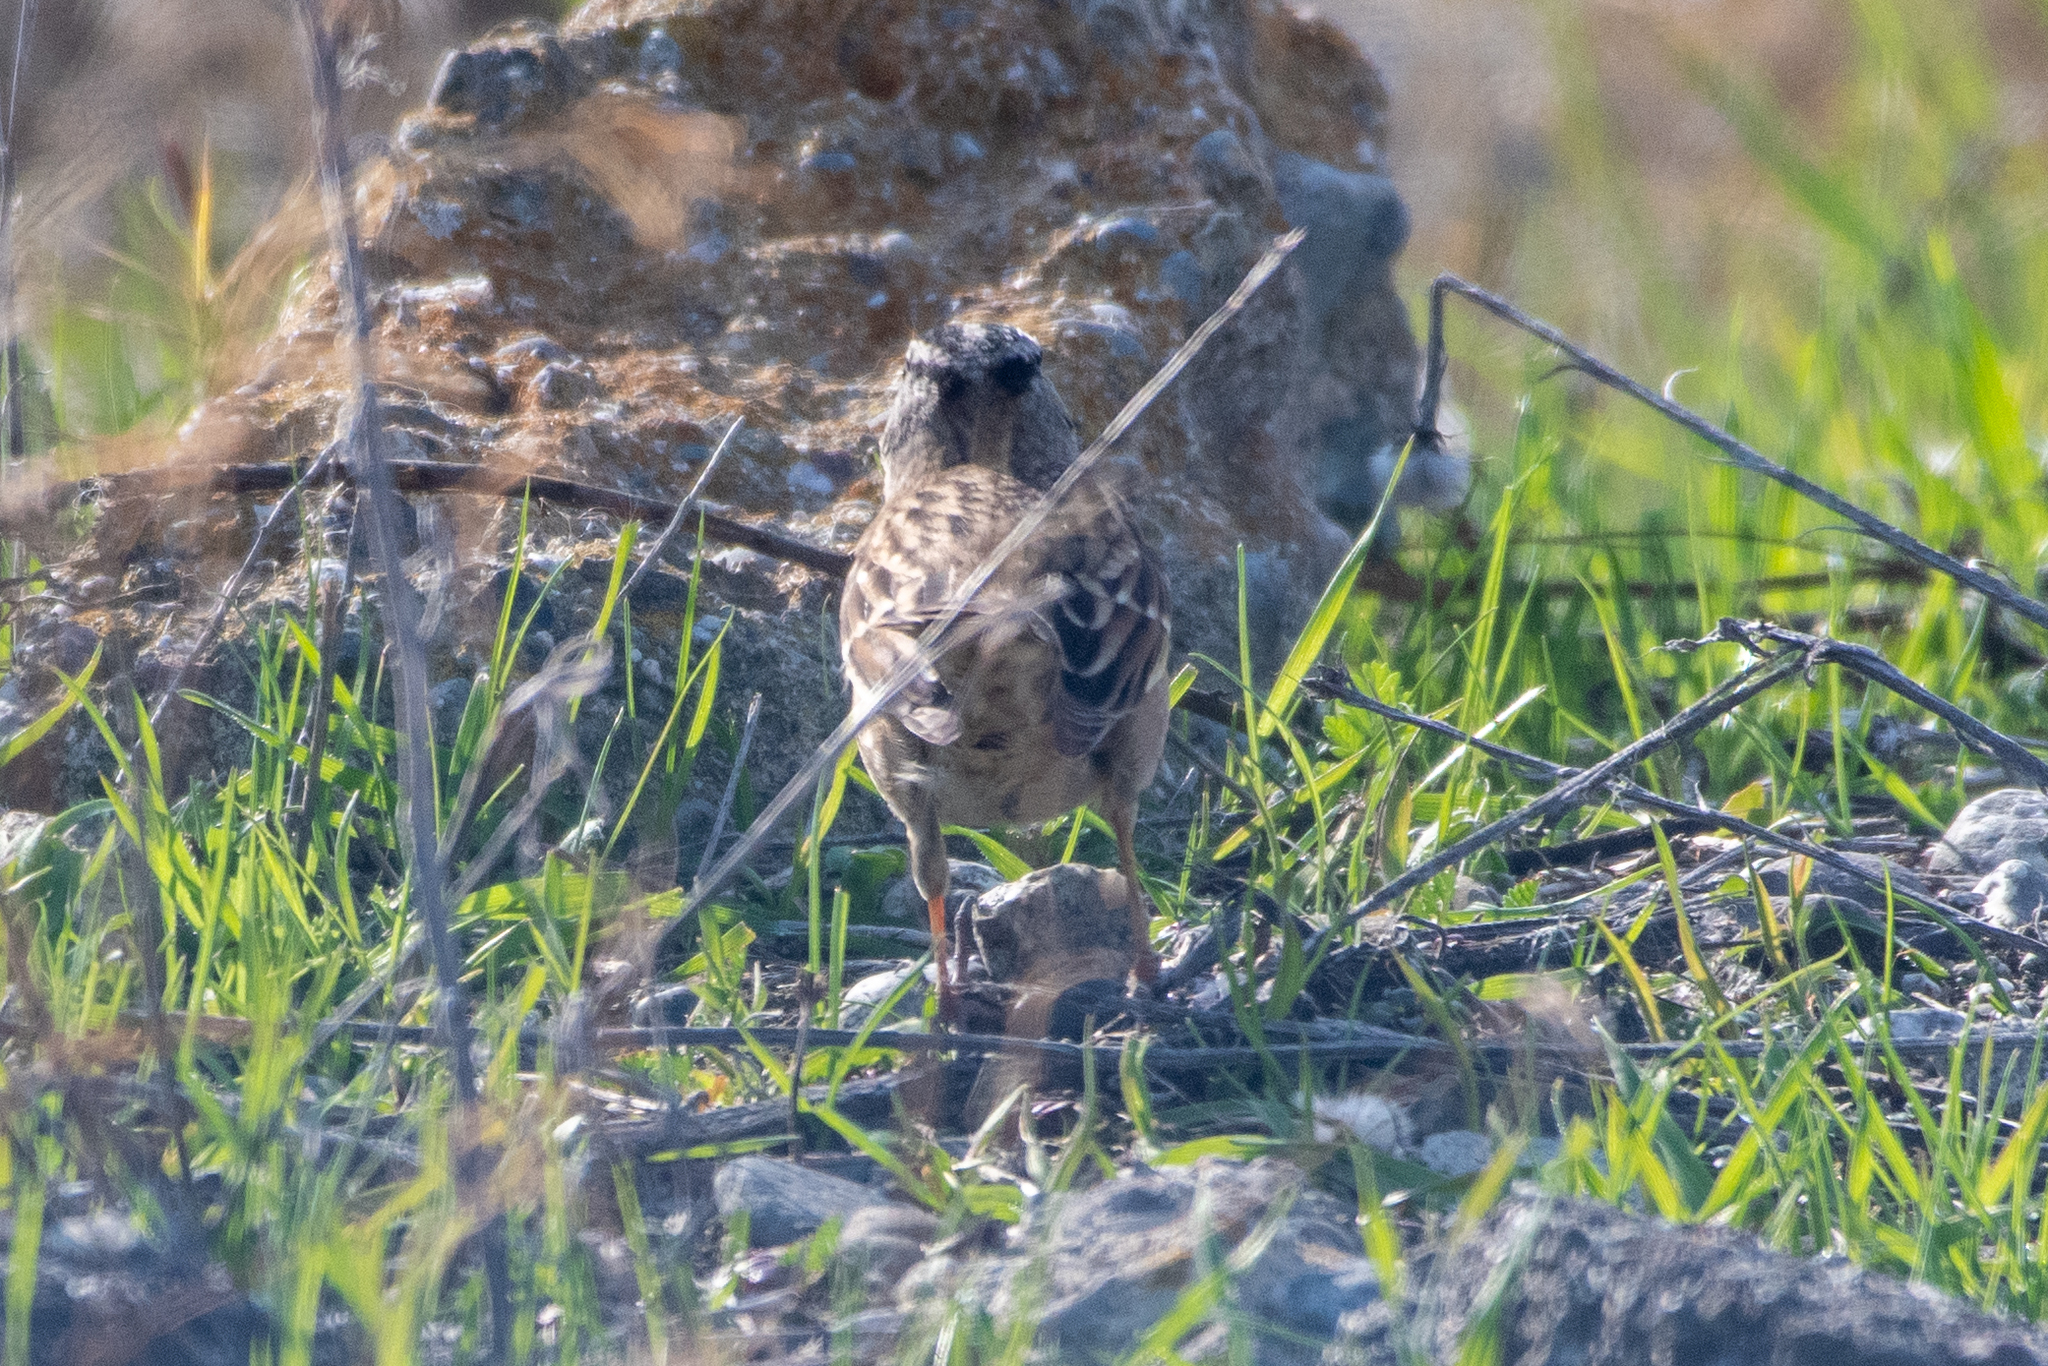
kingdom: Animalia
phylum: Chordata
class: Aves
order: Passeriformes
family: Passerellidae
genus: Zonotrichia
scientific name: Zonotrichia leucophrys
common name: White-crowned sparrow
